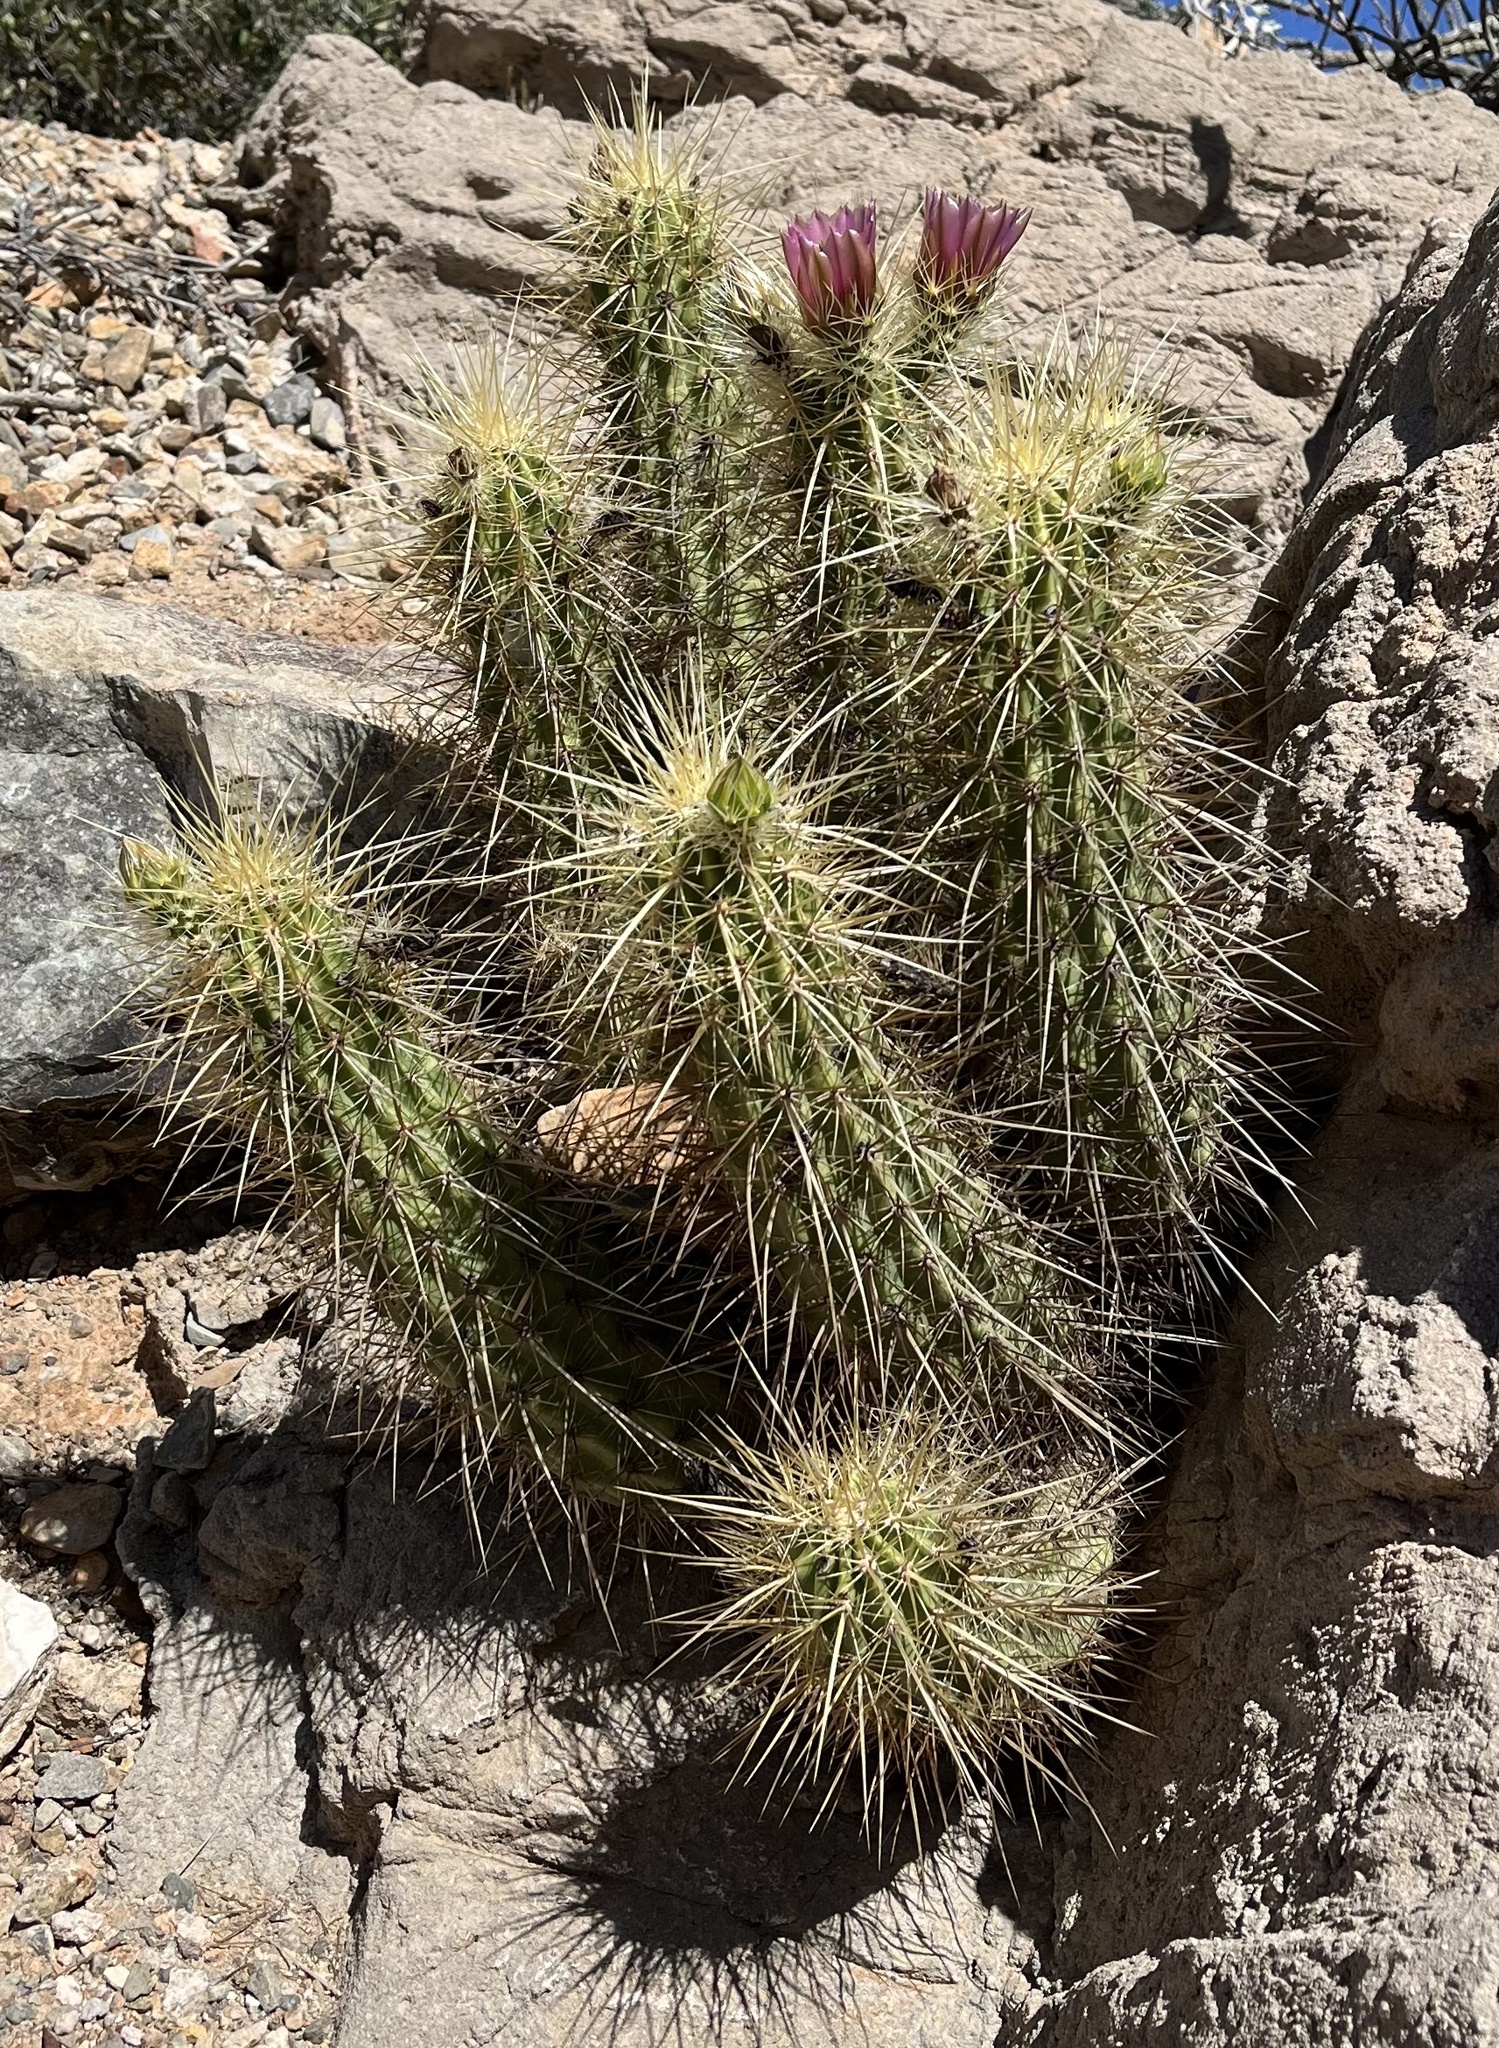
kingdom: Plantae
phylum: Tracheophyta
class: Magnoliopsida
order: Caryophyllales
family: Cactaceae
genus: Echinocereus
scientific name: Echinocereus nicholii
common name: Nichol's hedgehog cactus
